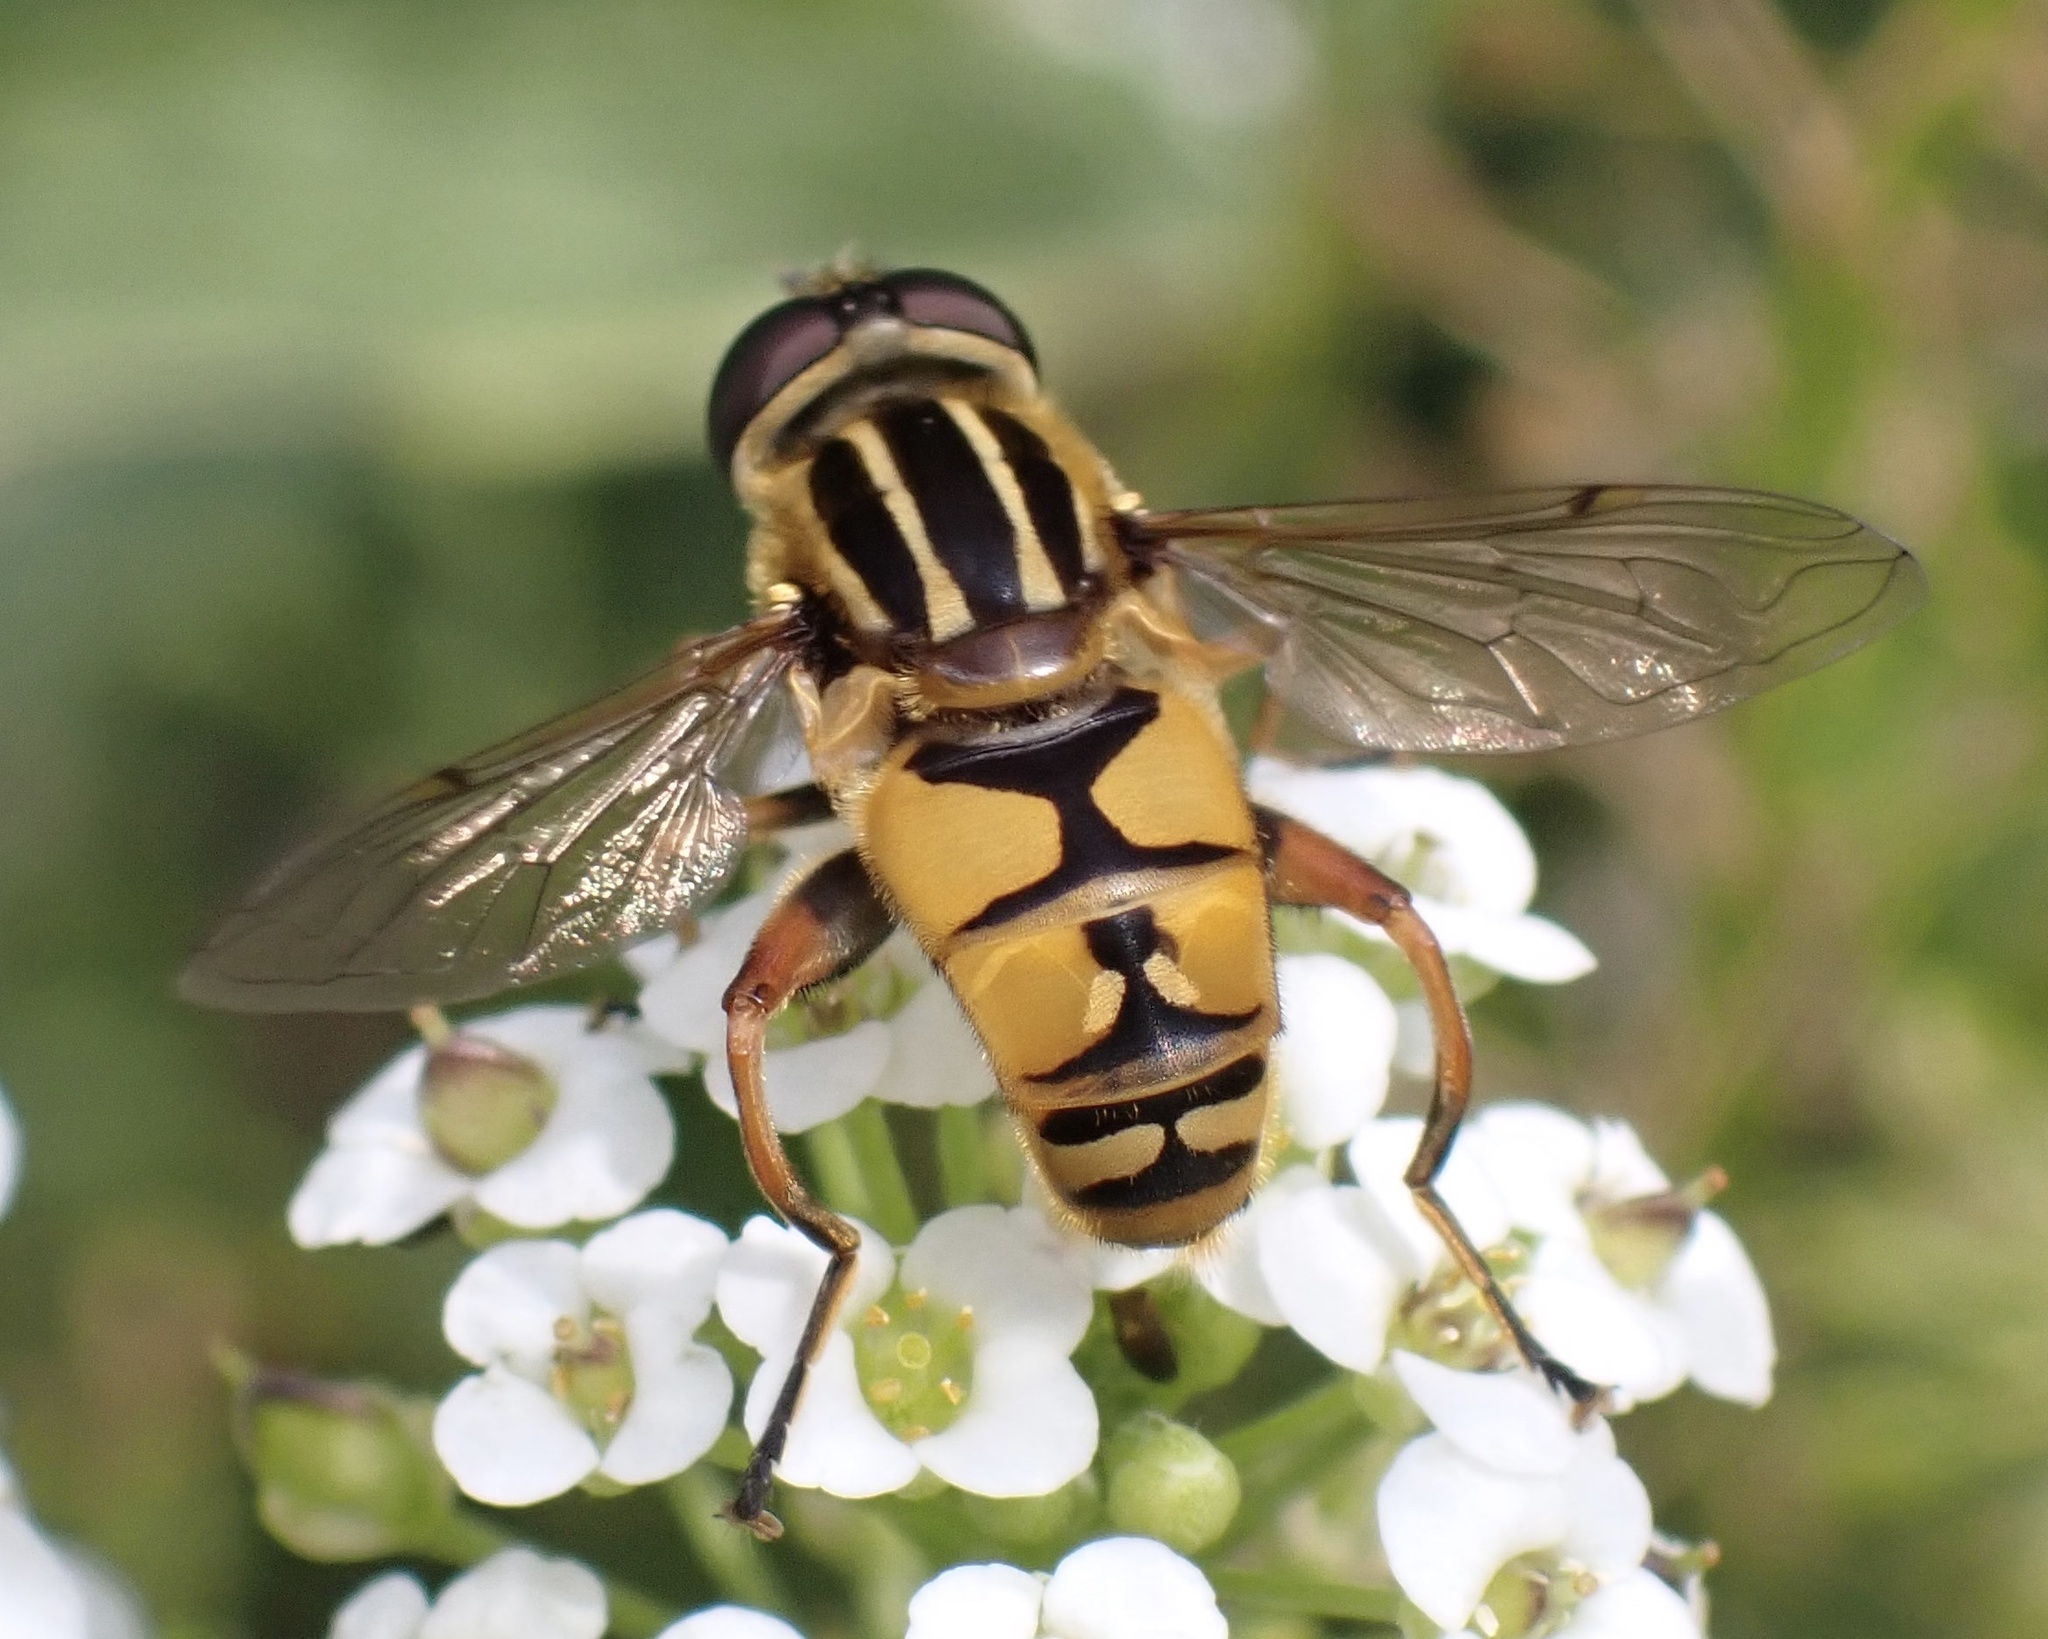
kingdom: Animalia
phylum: Arthropoda
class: Insecta
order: Diptera
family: Syrphidae
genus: Helophilus
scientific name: Helophilus pendulus
